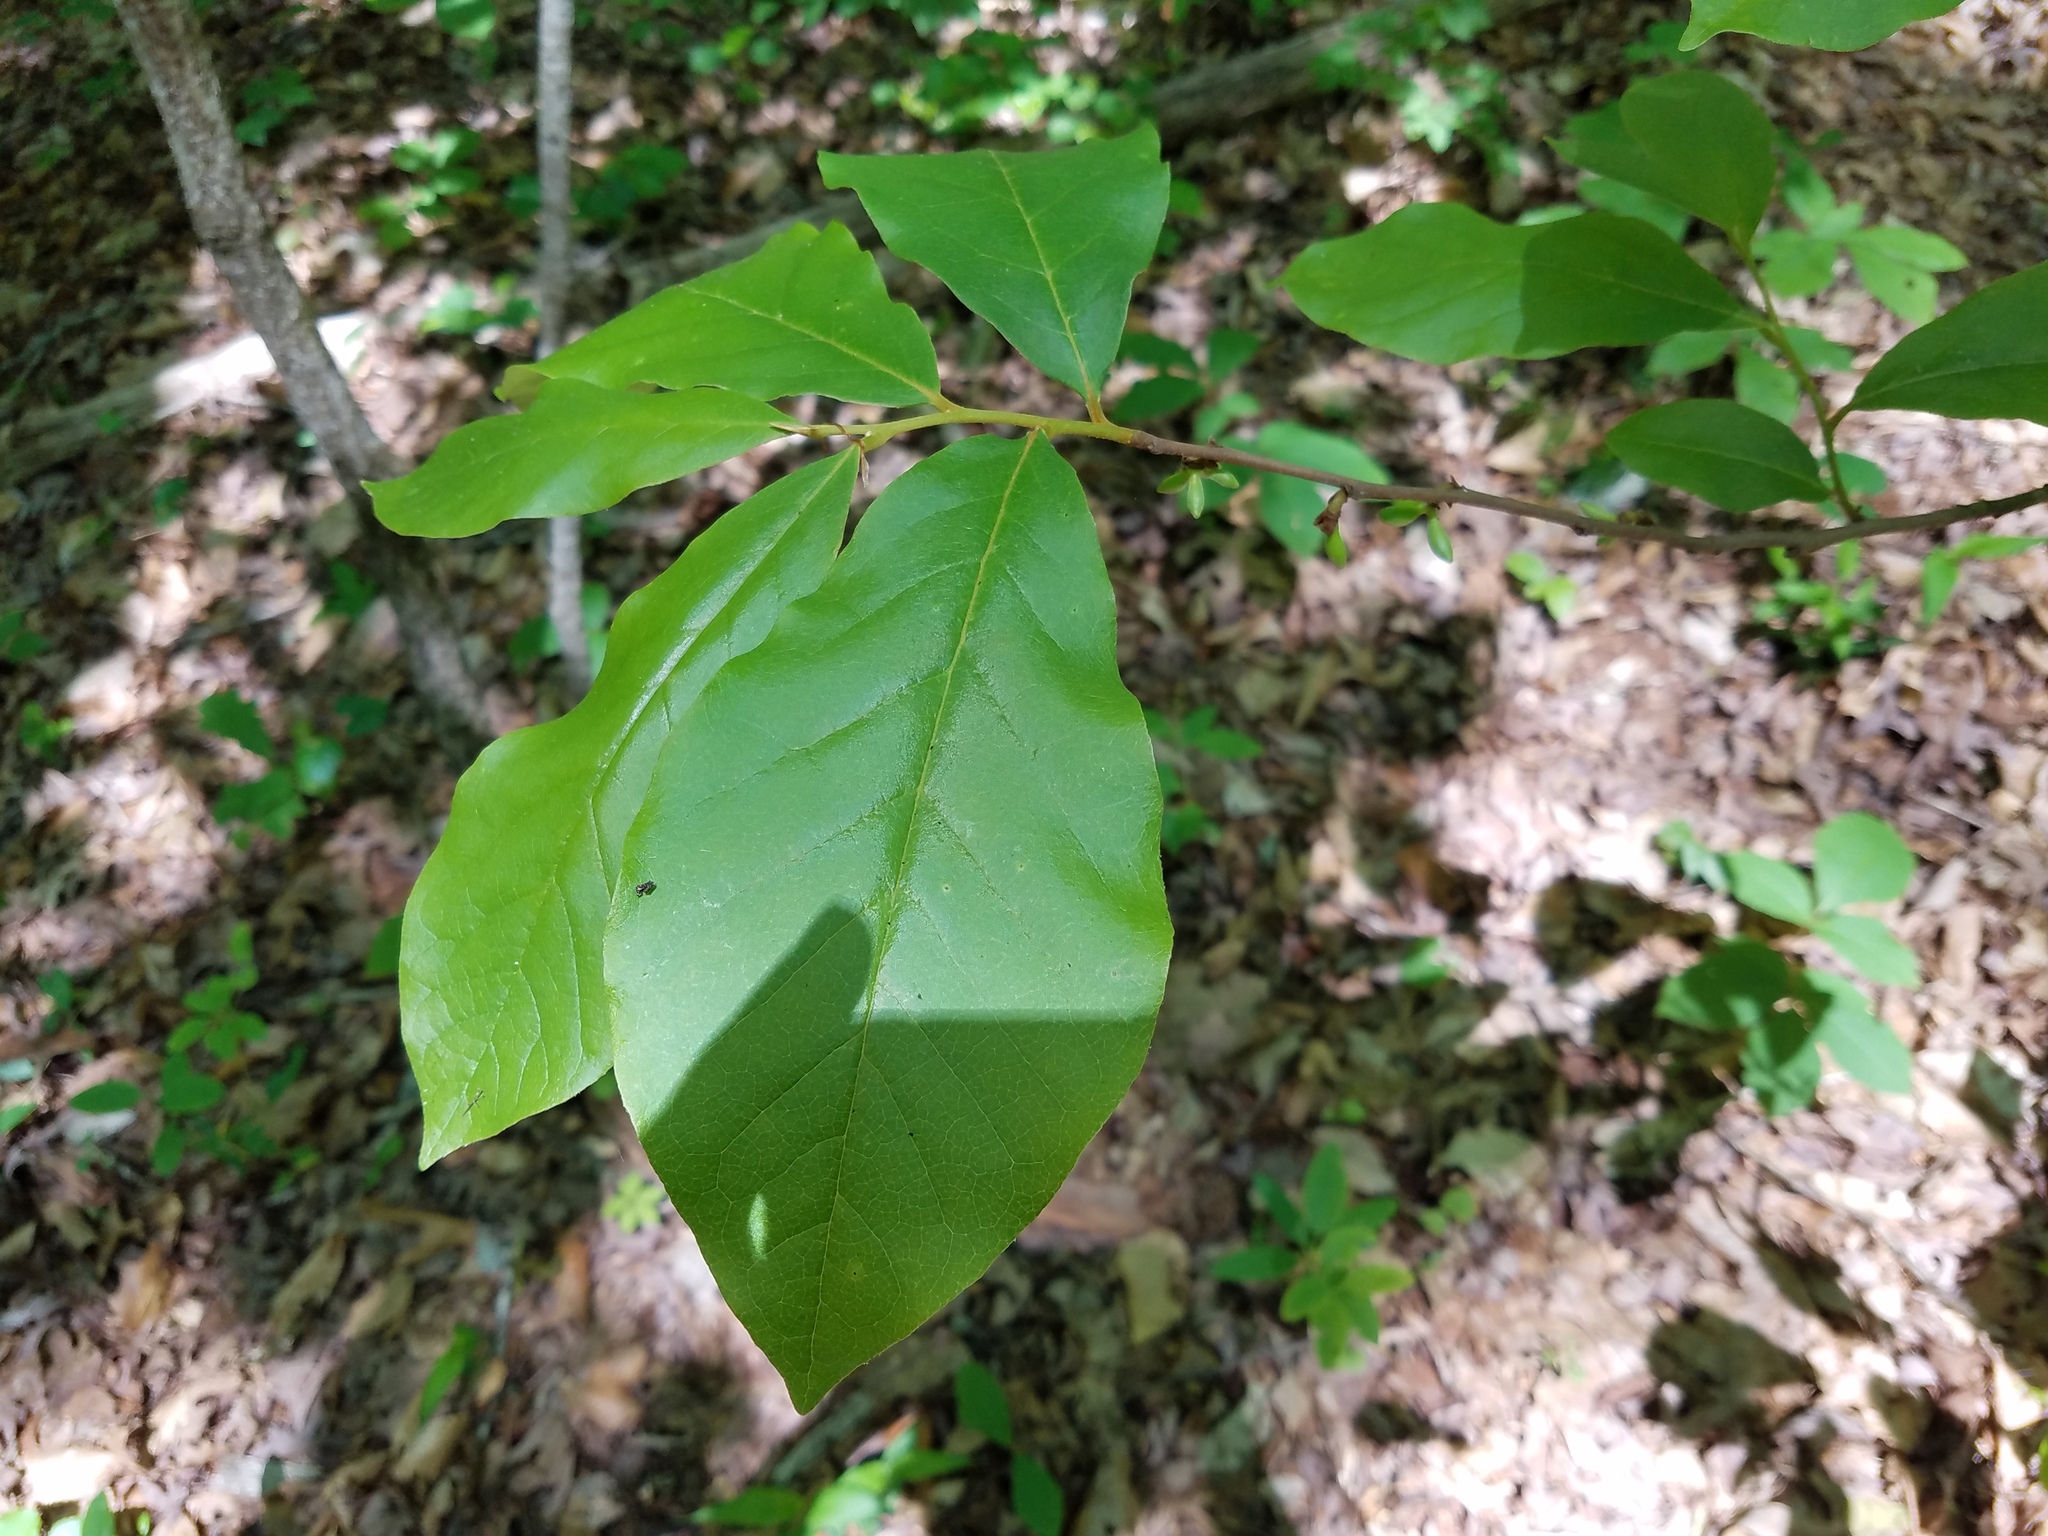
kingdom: Plantae
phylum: Tracheophyta
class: Magnoliopsida
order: Magnoliales
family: Annonaceae
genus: Asimina
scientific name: Asimina parviflora
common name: Dwarf pawpaw
